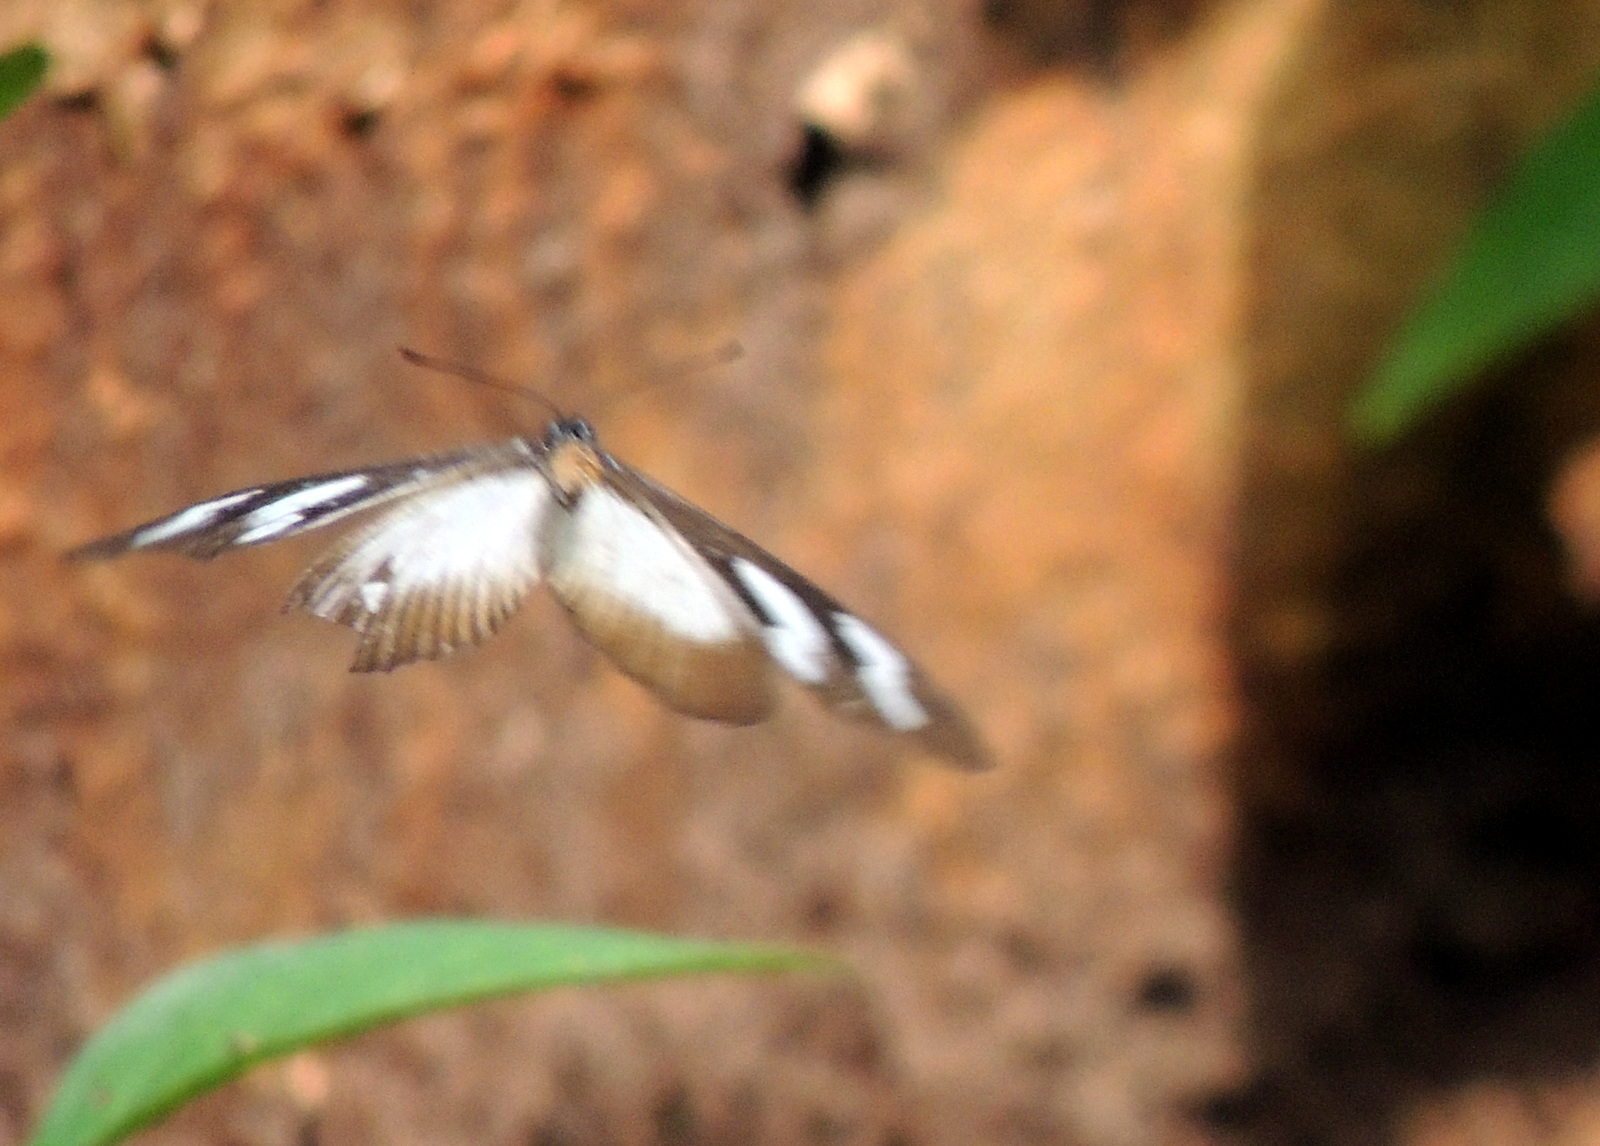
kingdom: Animalia
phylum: Arthropoda
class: Insecta
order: Lepidoptera
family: Nymphalidae
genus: Acraea
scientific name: Acraea Telchinia lycoa
